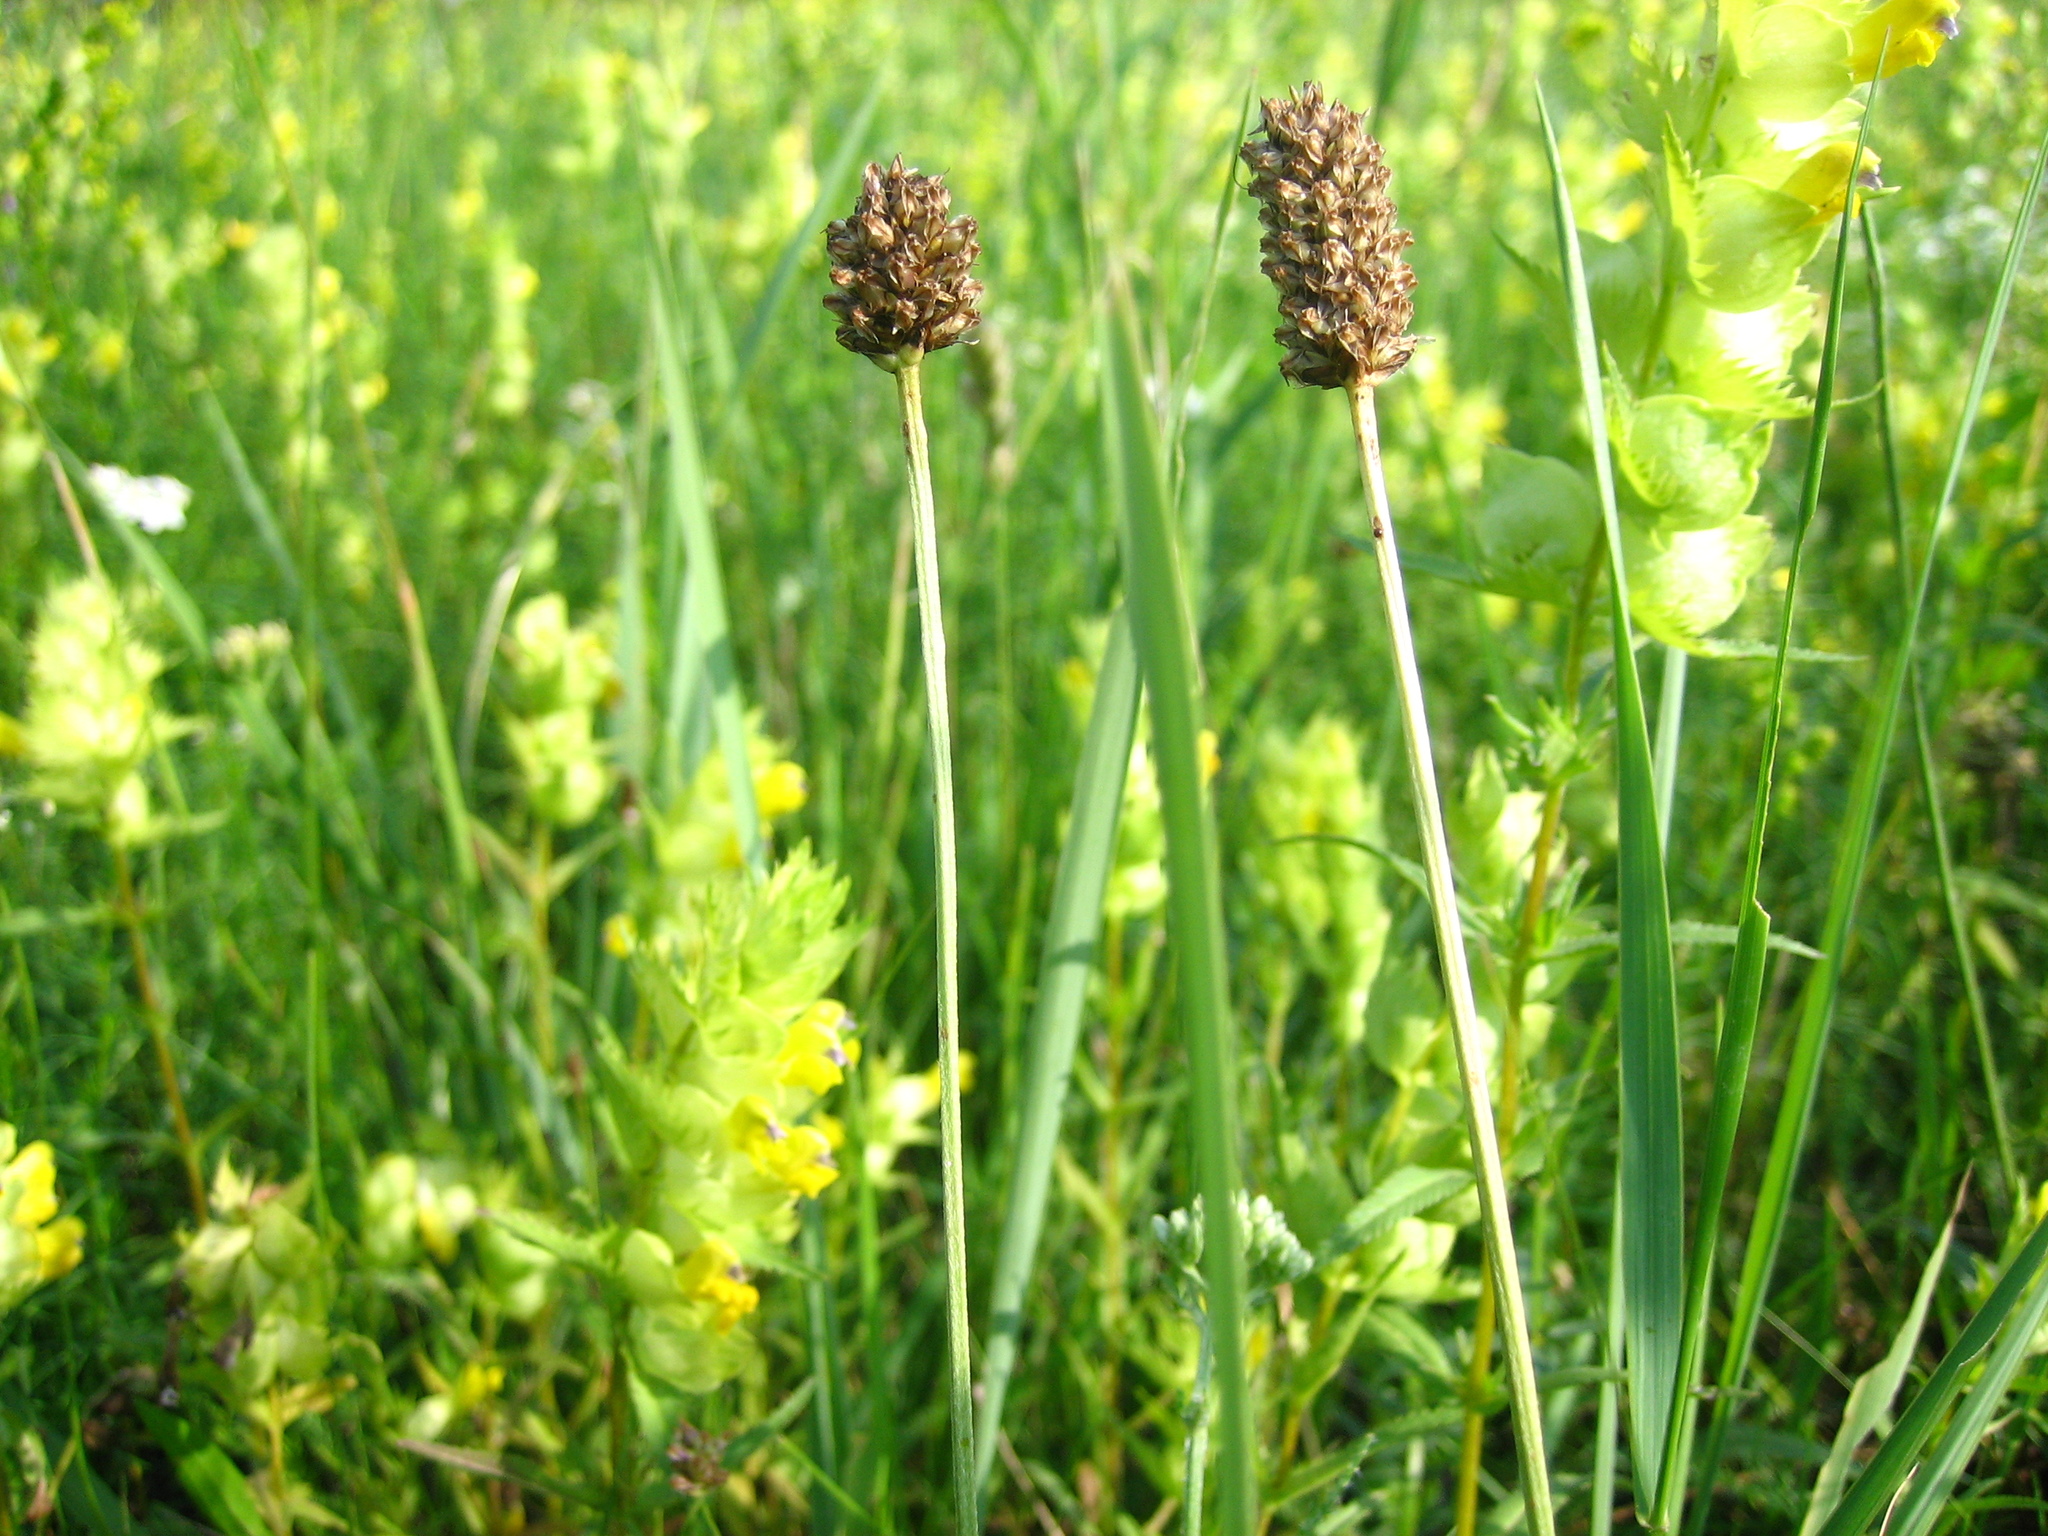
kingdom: Plantae
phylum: Tracheophyta
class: Magnoliopsida
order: Lamiales
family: Plantaginaceae
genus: Plantago
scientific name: Plantago lanceolata
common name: Ribwort plantain
